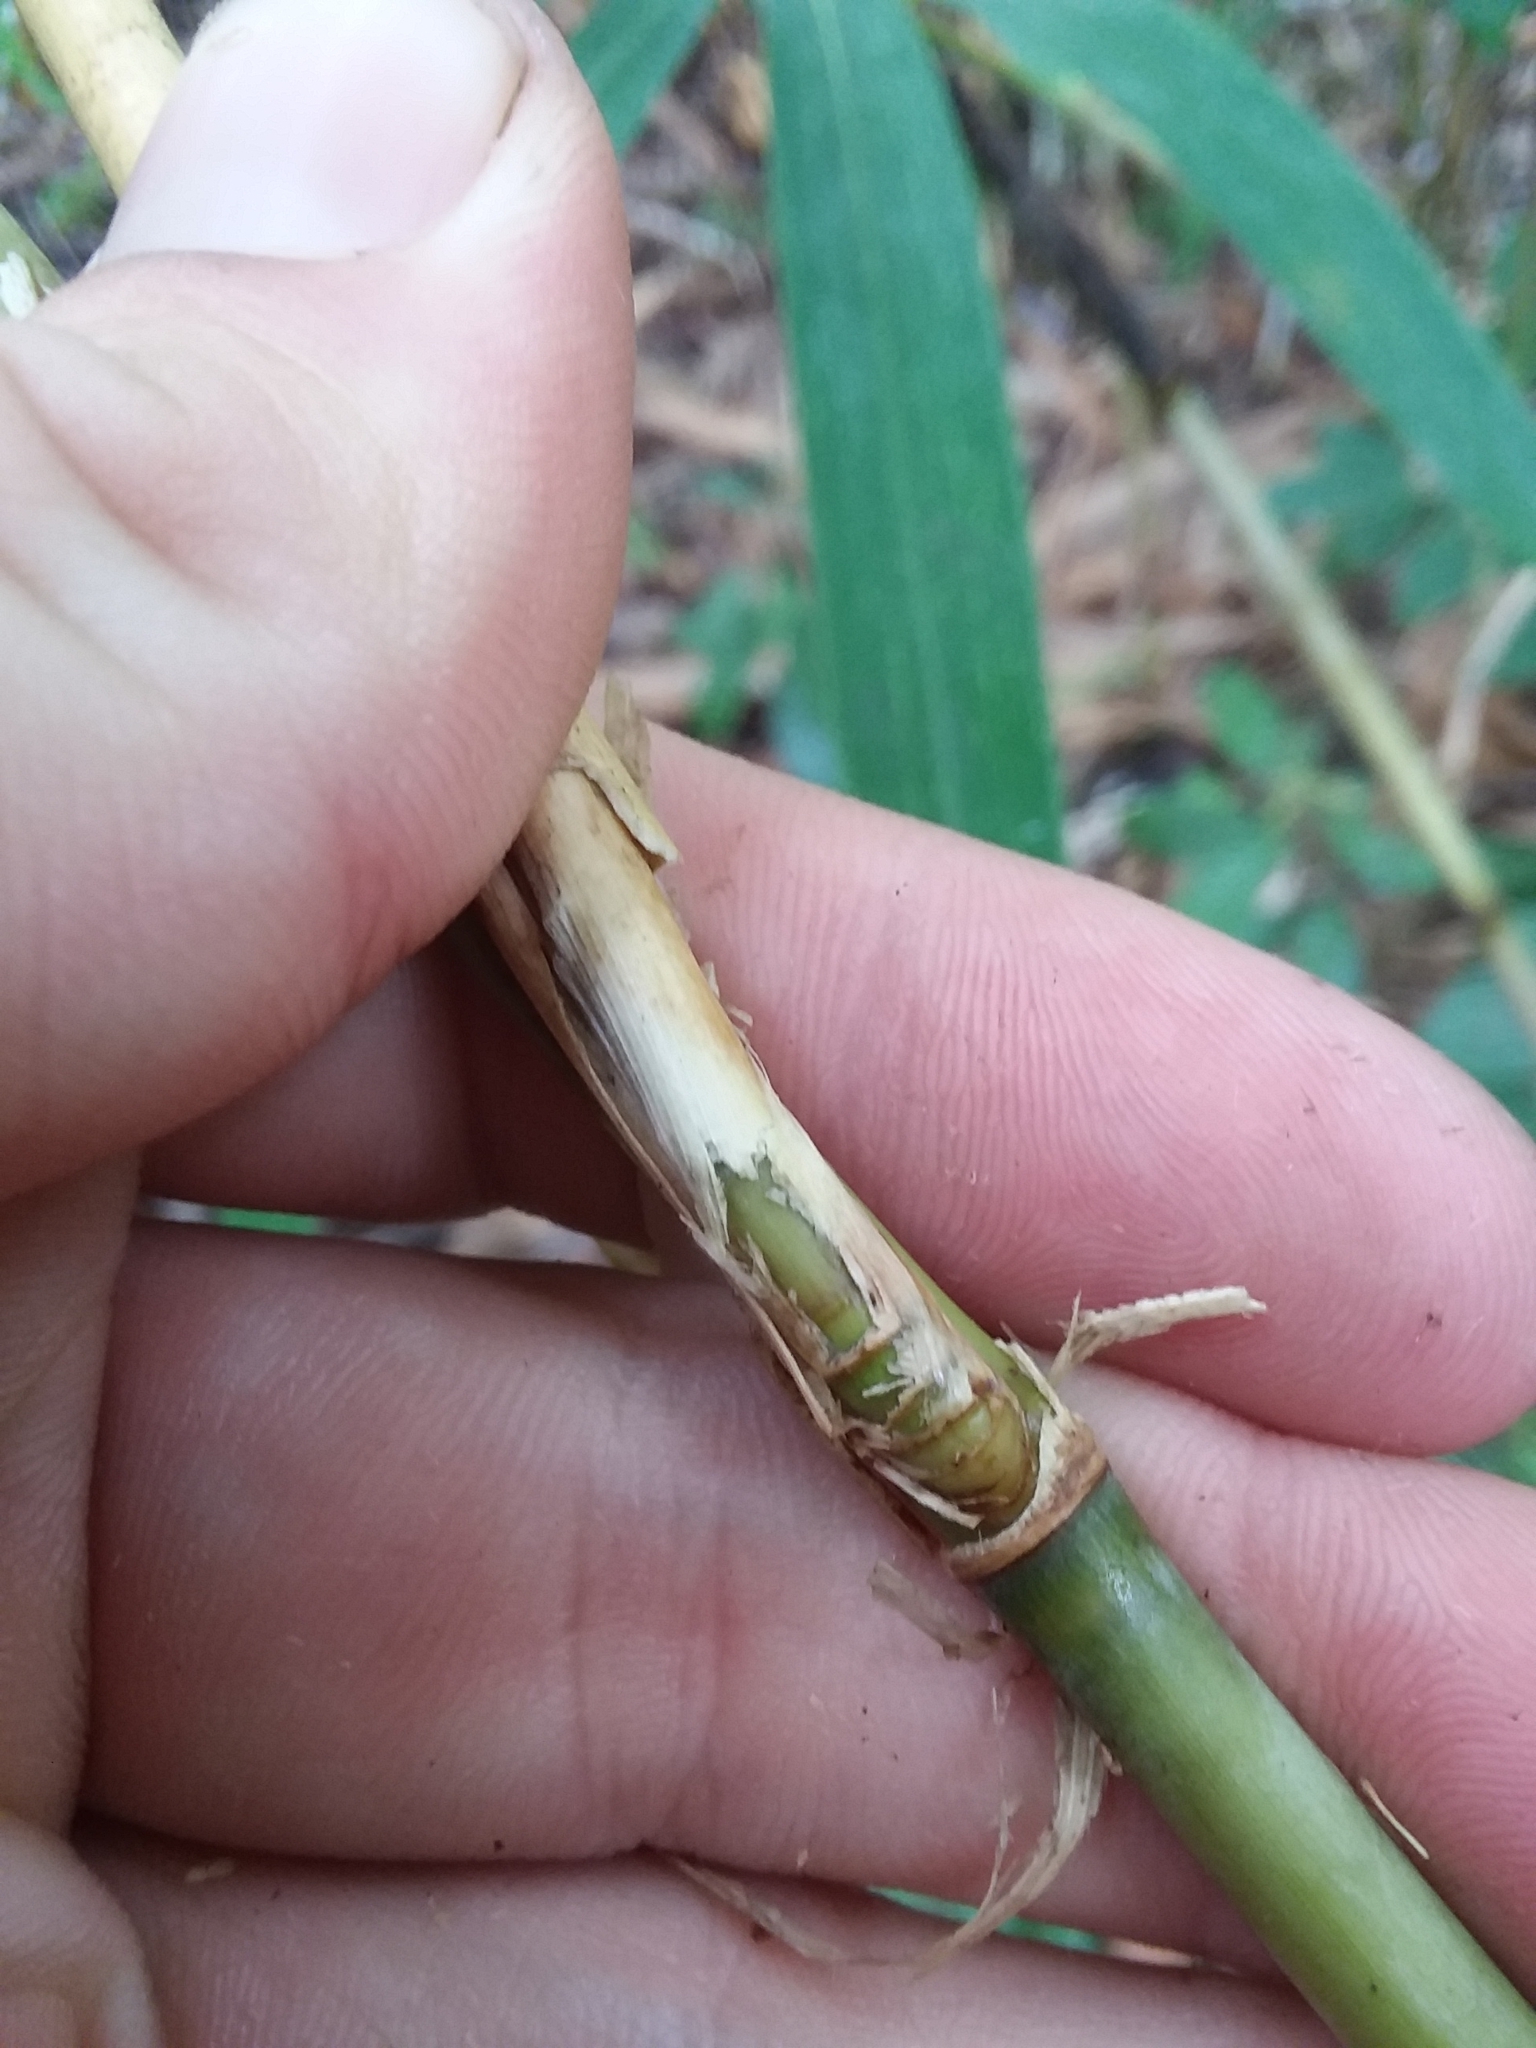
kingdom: Plantae
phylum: Tracheophyta
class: Liliopsida
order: Poales
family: Poaceae
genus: Arundinaria
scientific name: Arundinaria tecta
